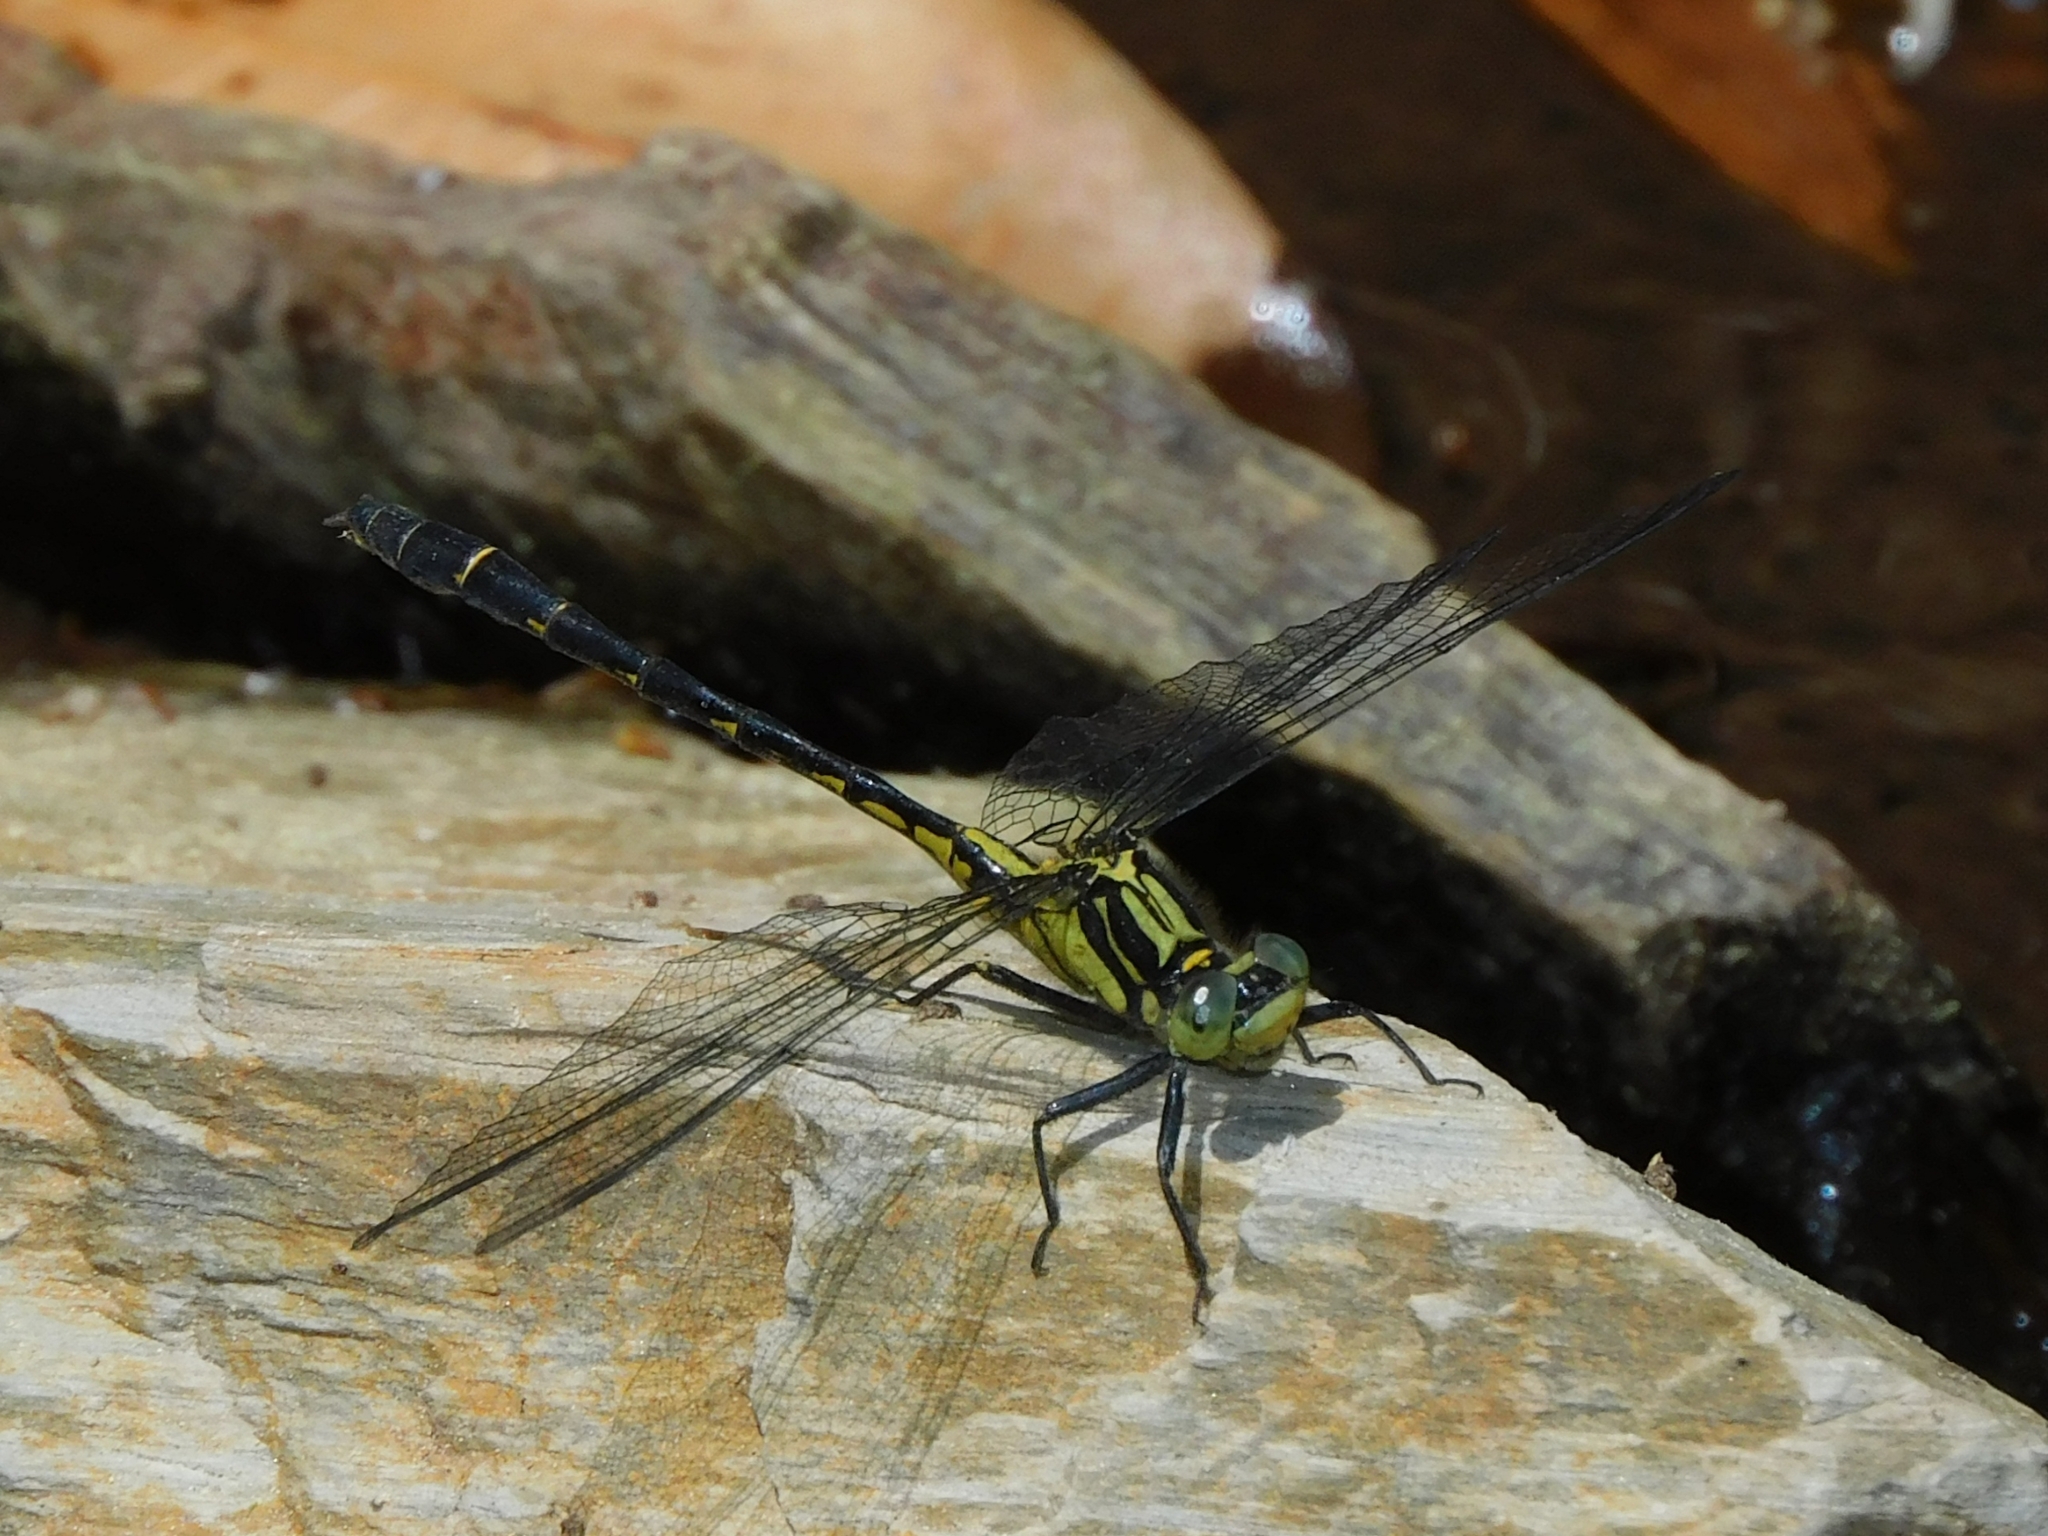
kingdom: Animalia
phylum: Arthropoda
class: Insecta
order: Odonata
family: Gomphidae
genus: Davidius
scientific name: Davidius aberrans
